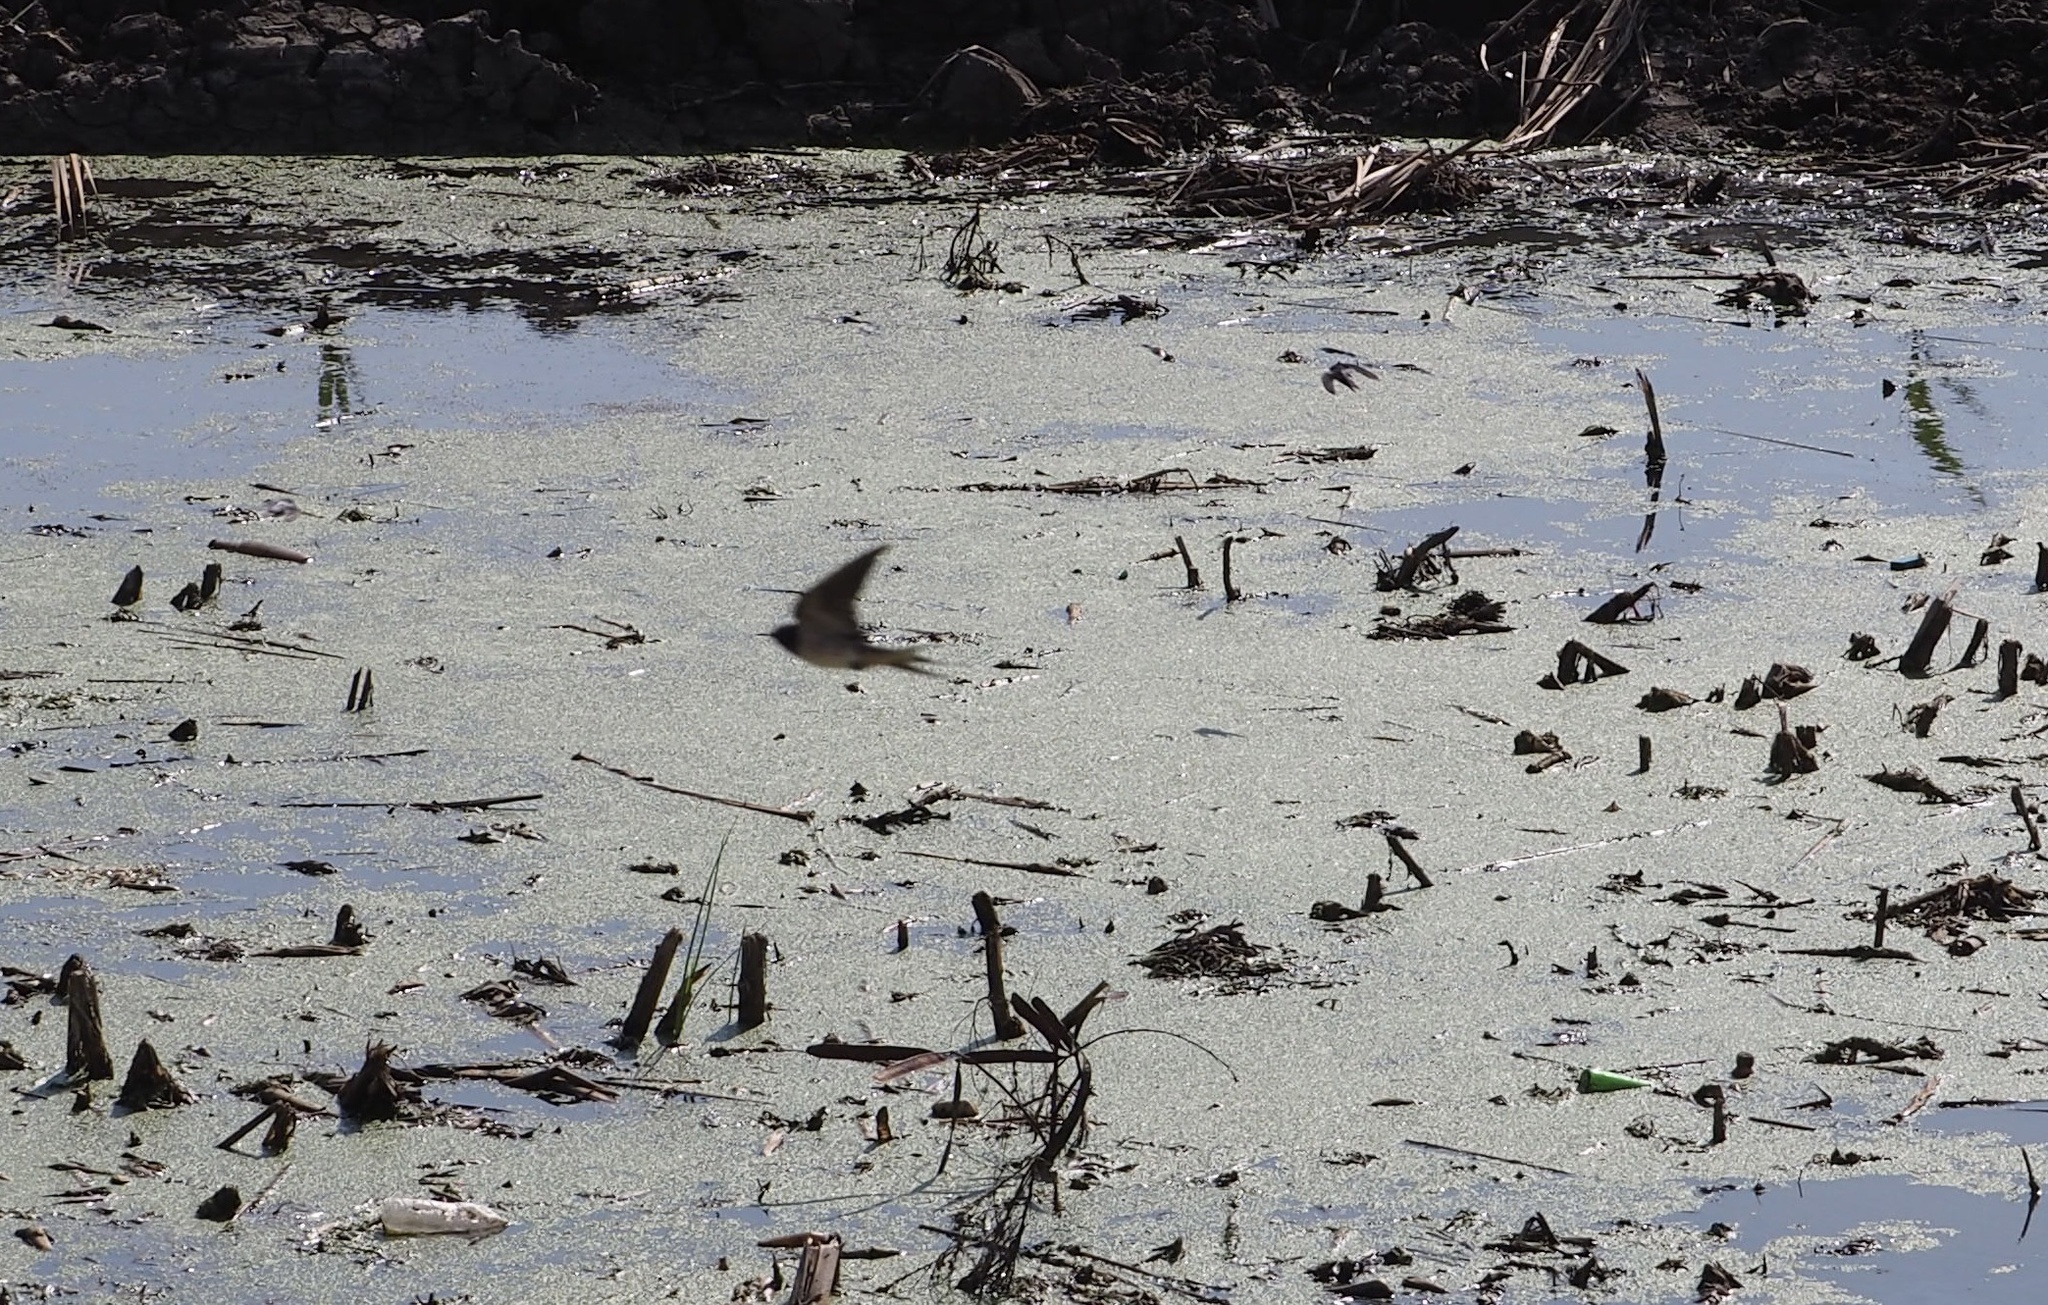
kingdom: Animalia
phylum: Chordata
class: Aves
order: Passeriformes
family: Hirundinidae
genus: Hirundo
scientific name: Hirundo rustica
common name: Barn swallow
